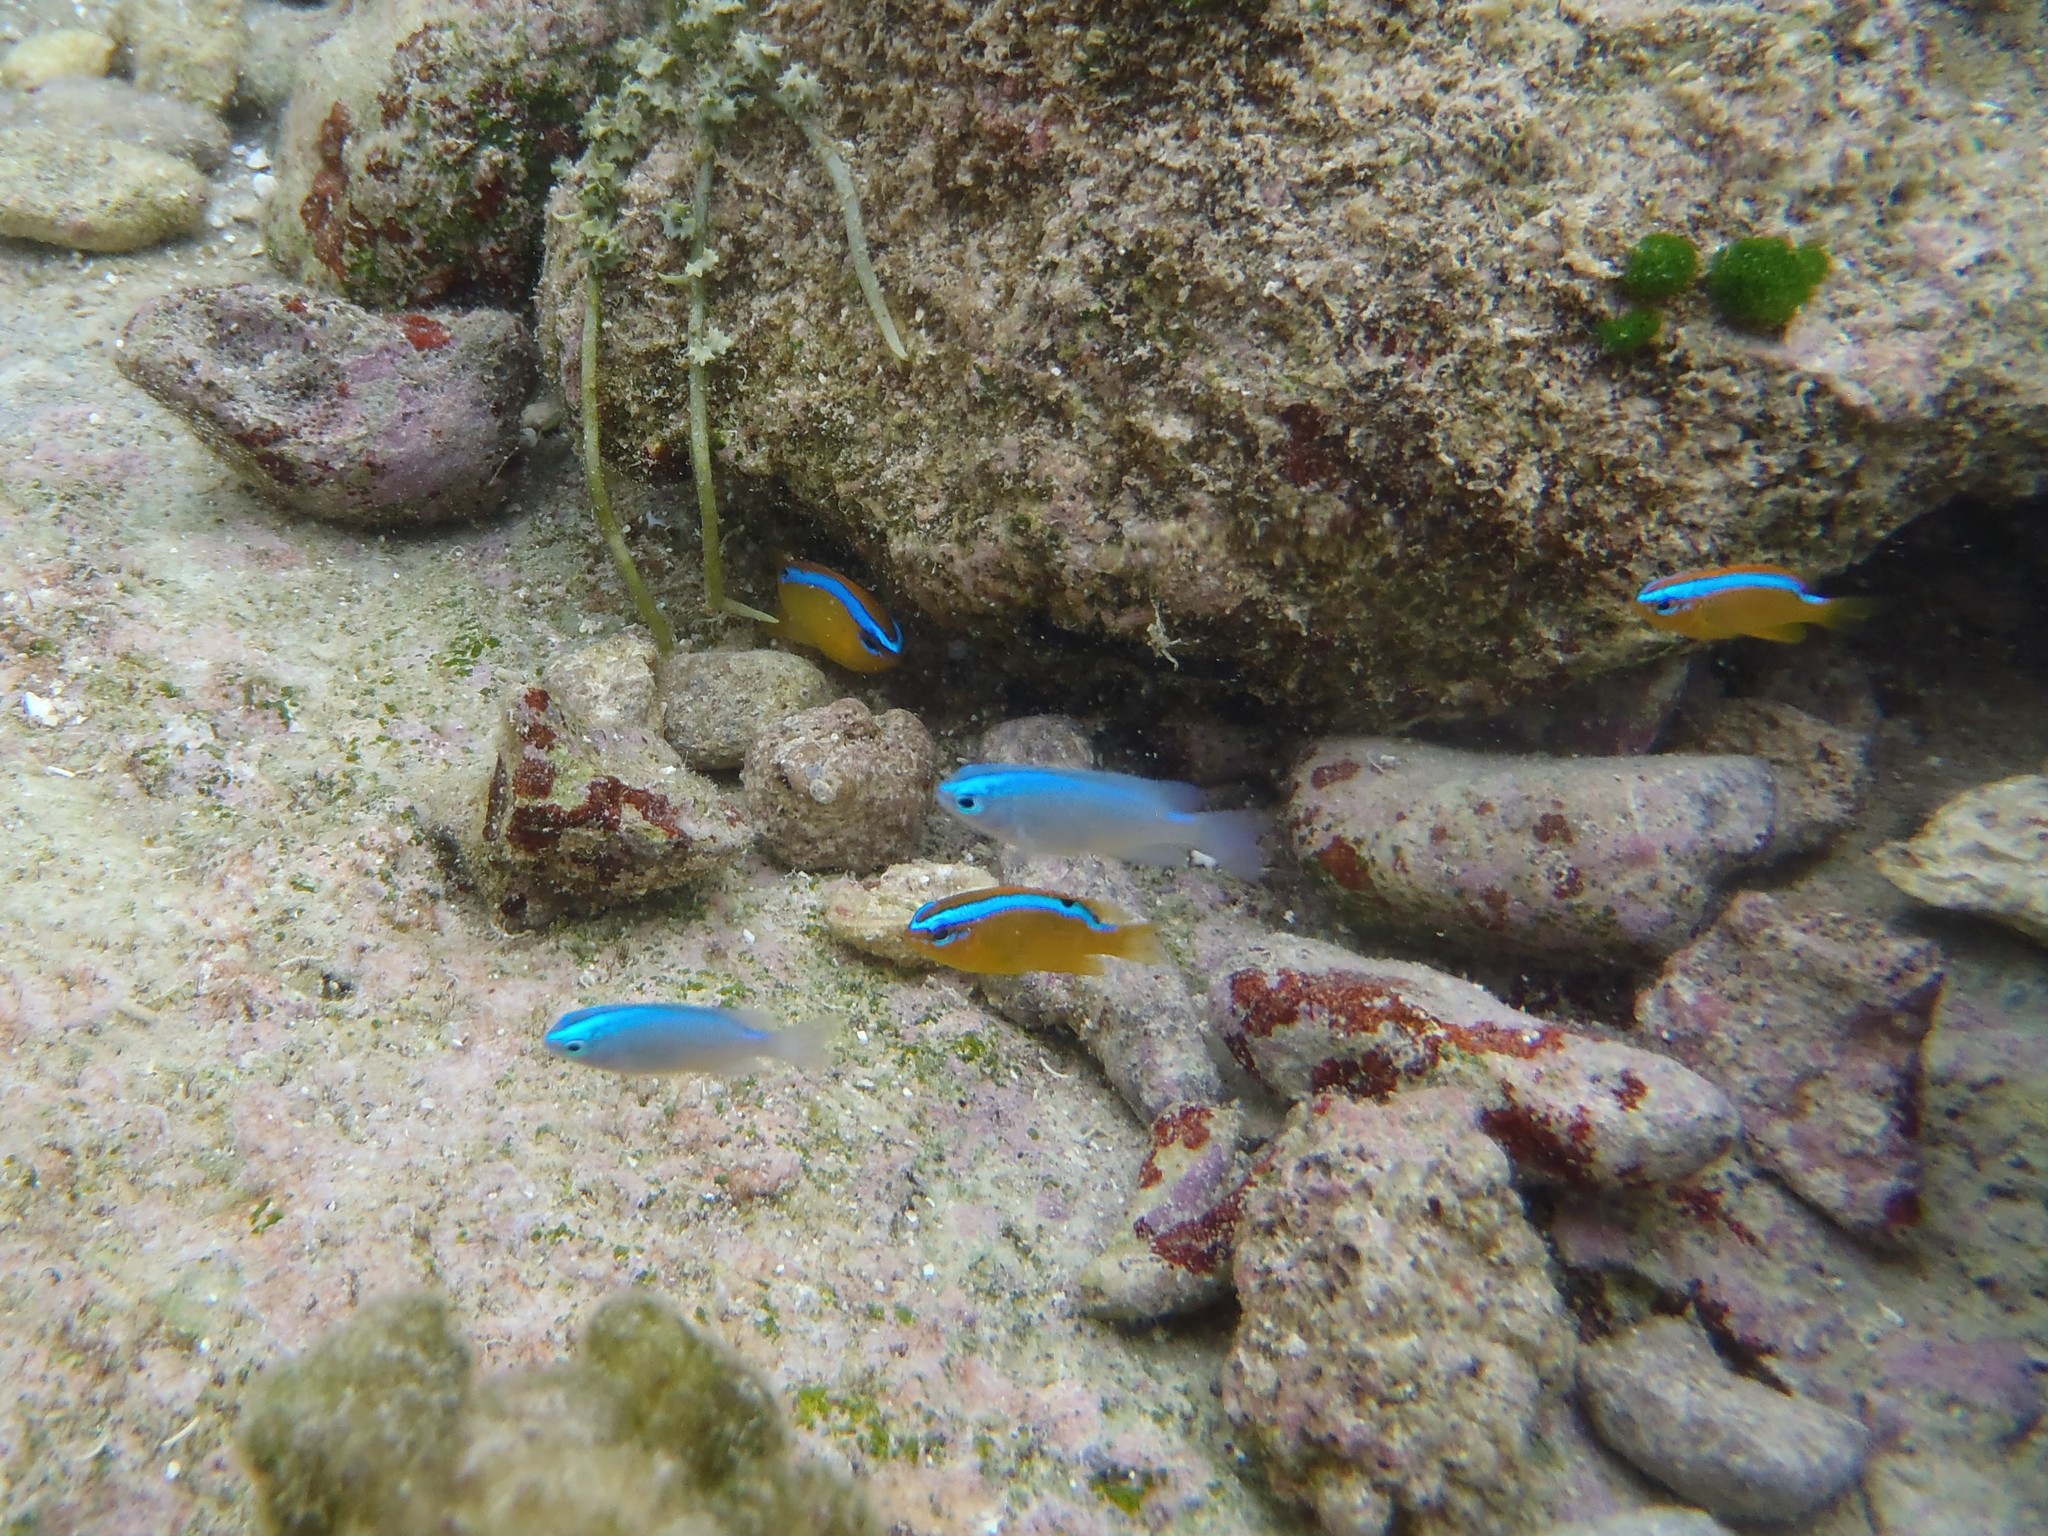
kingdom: Animalia
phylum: Chordata
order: Perciformes
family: Pomacentridae
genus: Chrysiptera
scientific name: Chrysiptera glauca
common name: Grey demoiselle
